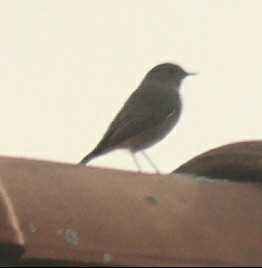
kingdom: Animalia
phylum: Chordata
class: Aves
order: Passeriformes
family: Muscicapidae
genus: Phoenicurus
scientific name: Phoenicurus ochruros
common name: Black redstart
